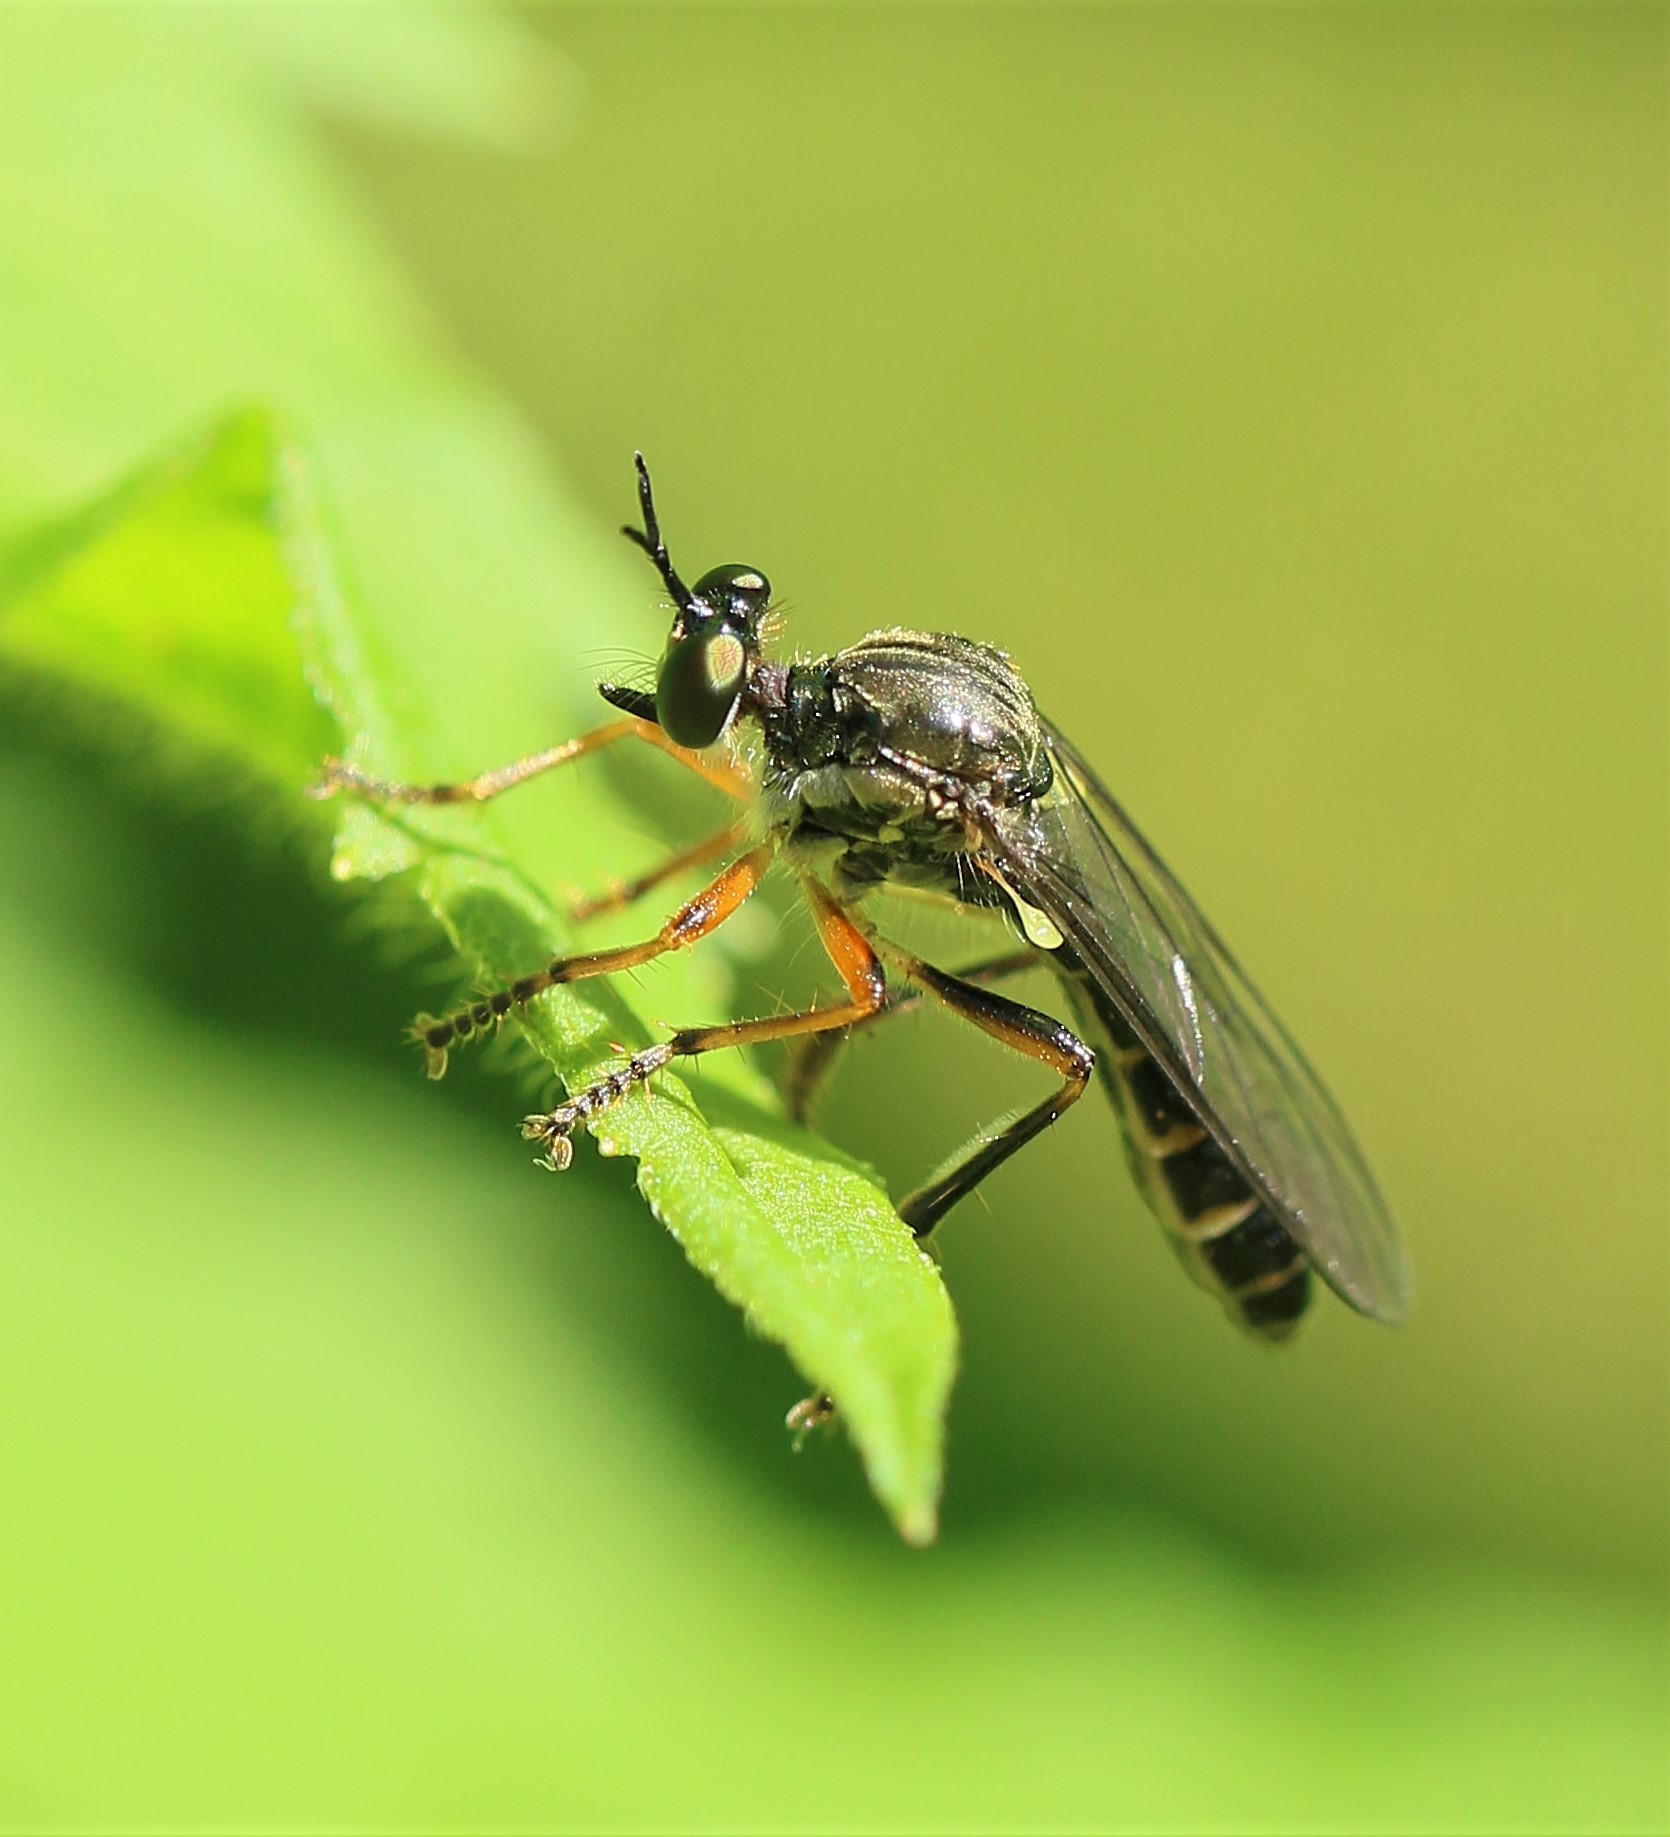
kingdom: Animalia
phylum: Arthropoda
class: Insecta
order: Diptera
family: Asilidae
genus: Dioctria
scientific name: Dioctria hyalipennis
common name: Stripe-legged robberfly
